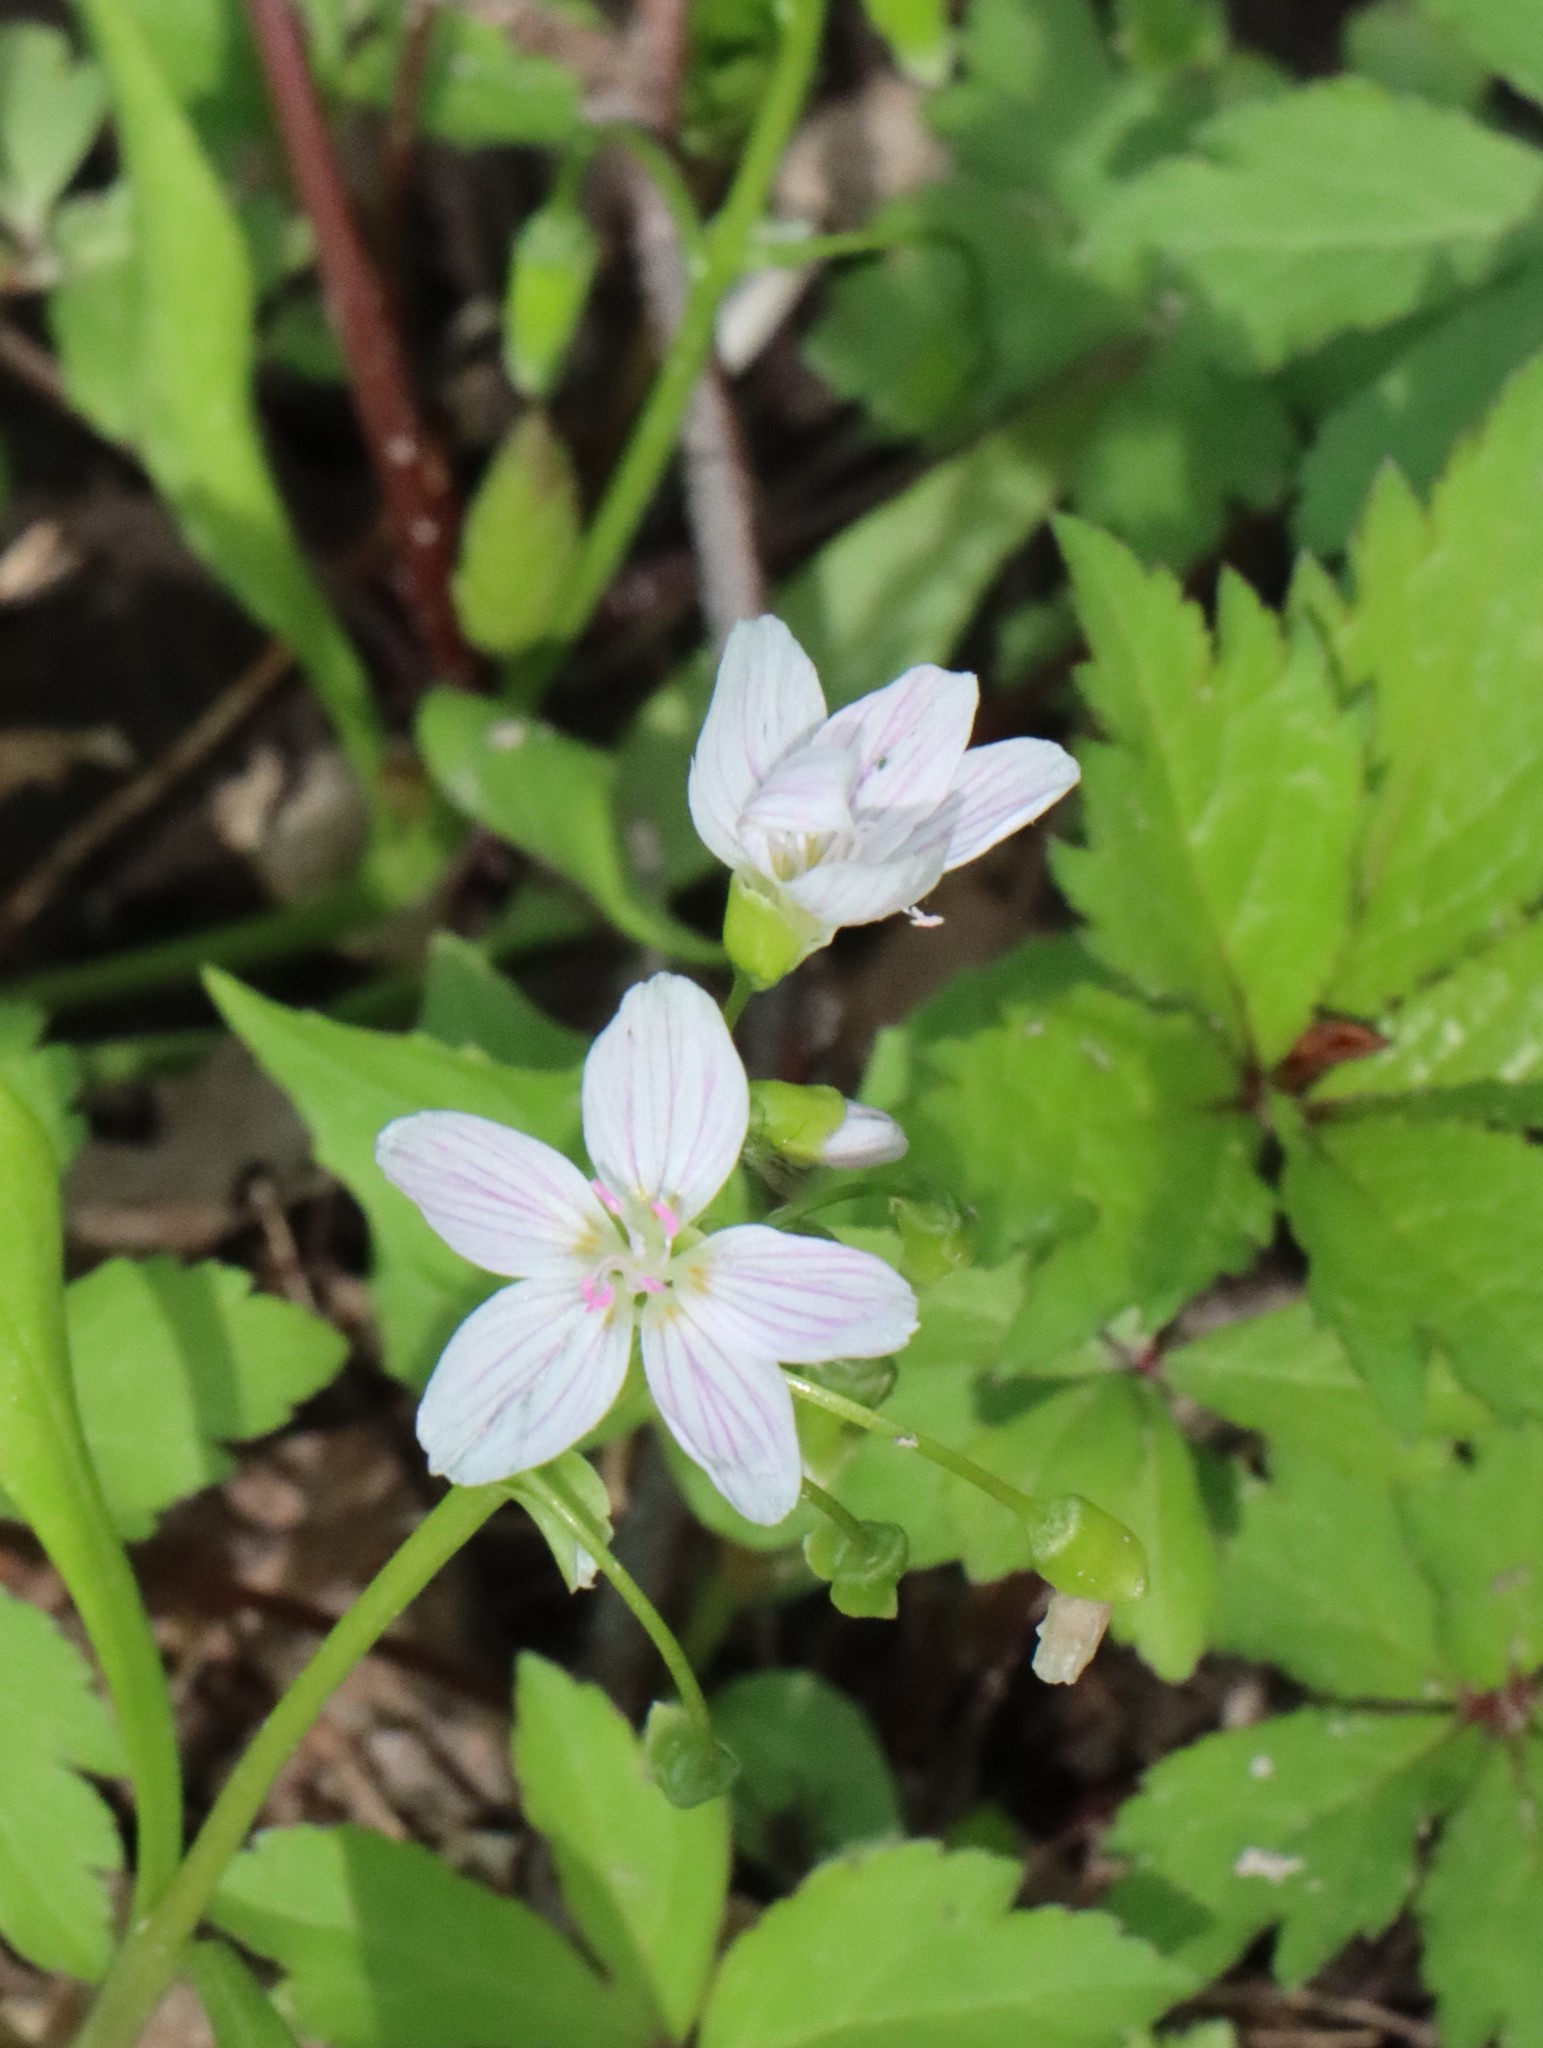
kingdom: Plantae
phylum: Tracheophyta
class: Magnoliopsida
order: Caryophyllales
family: Montiaceae
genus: Claytonia
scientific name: Claytonia virginica
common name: Virginia springbeauty
